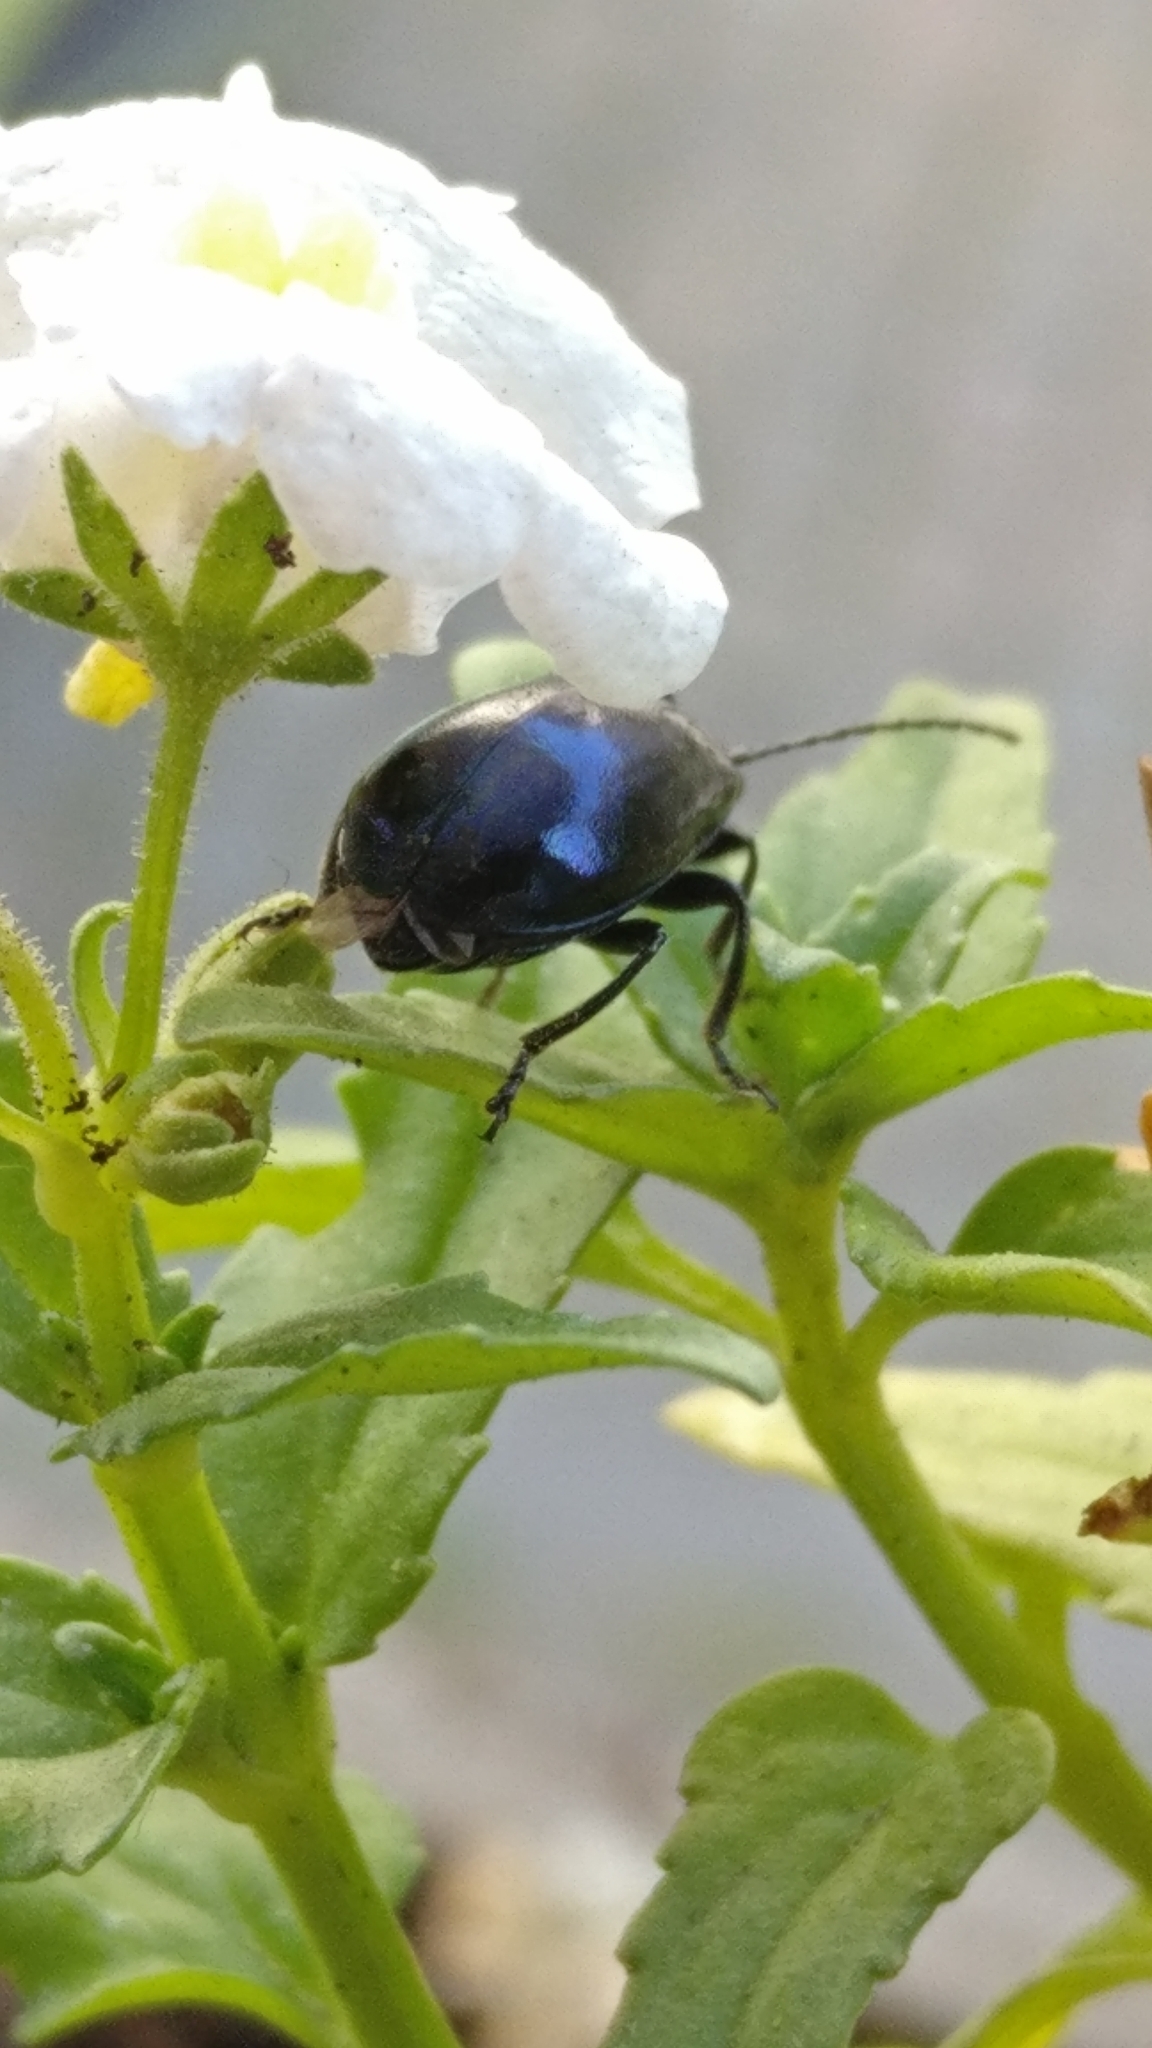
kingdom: Animalia
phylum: Arthropoda
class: Insecta
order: Coleoptera
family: Chrysomelidae
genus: Agelastica
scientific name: Agelastica alni
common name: Alder leaf beetle
